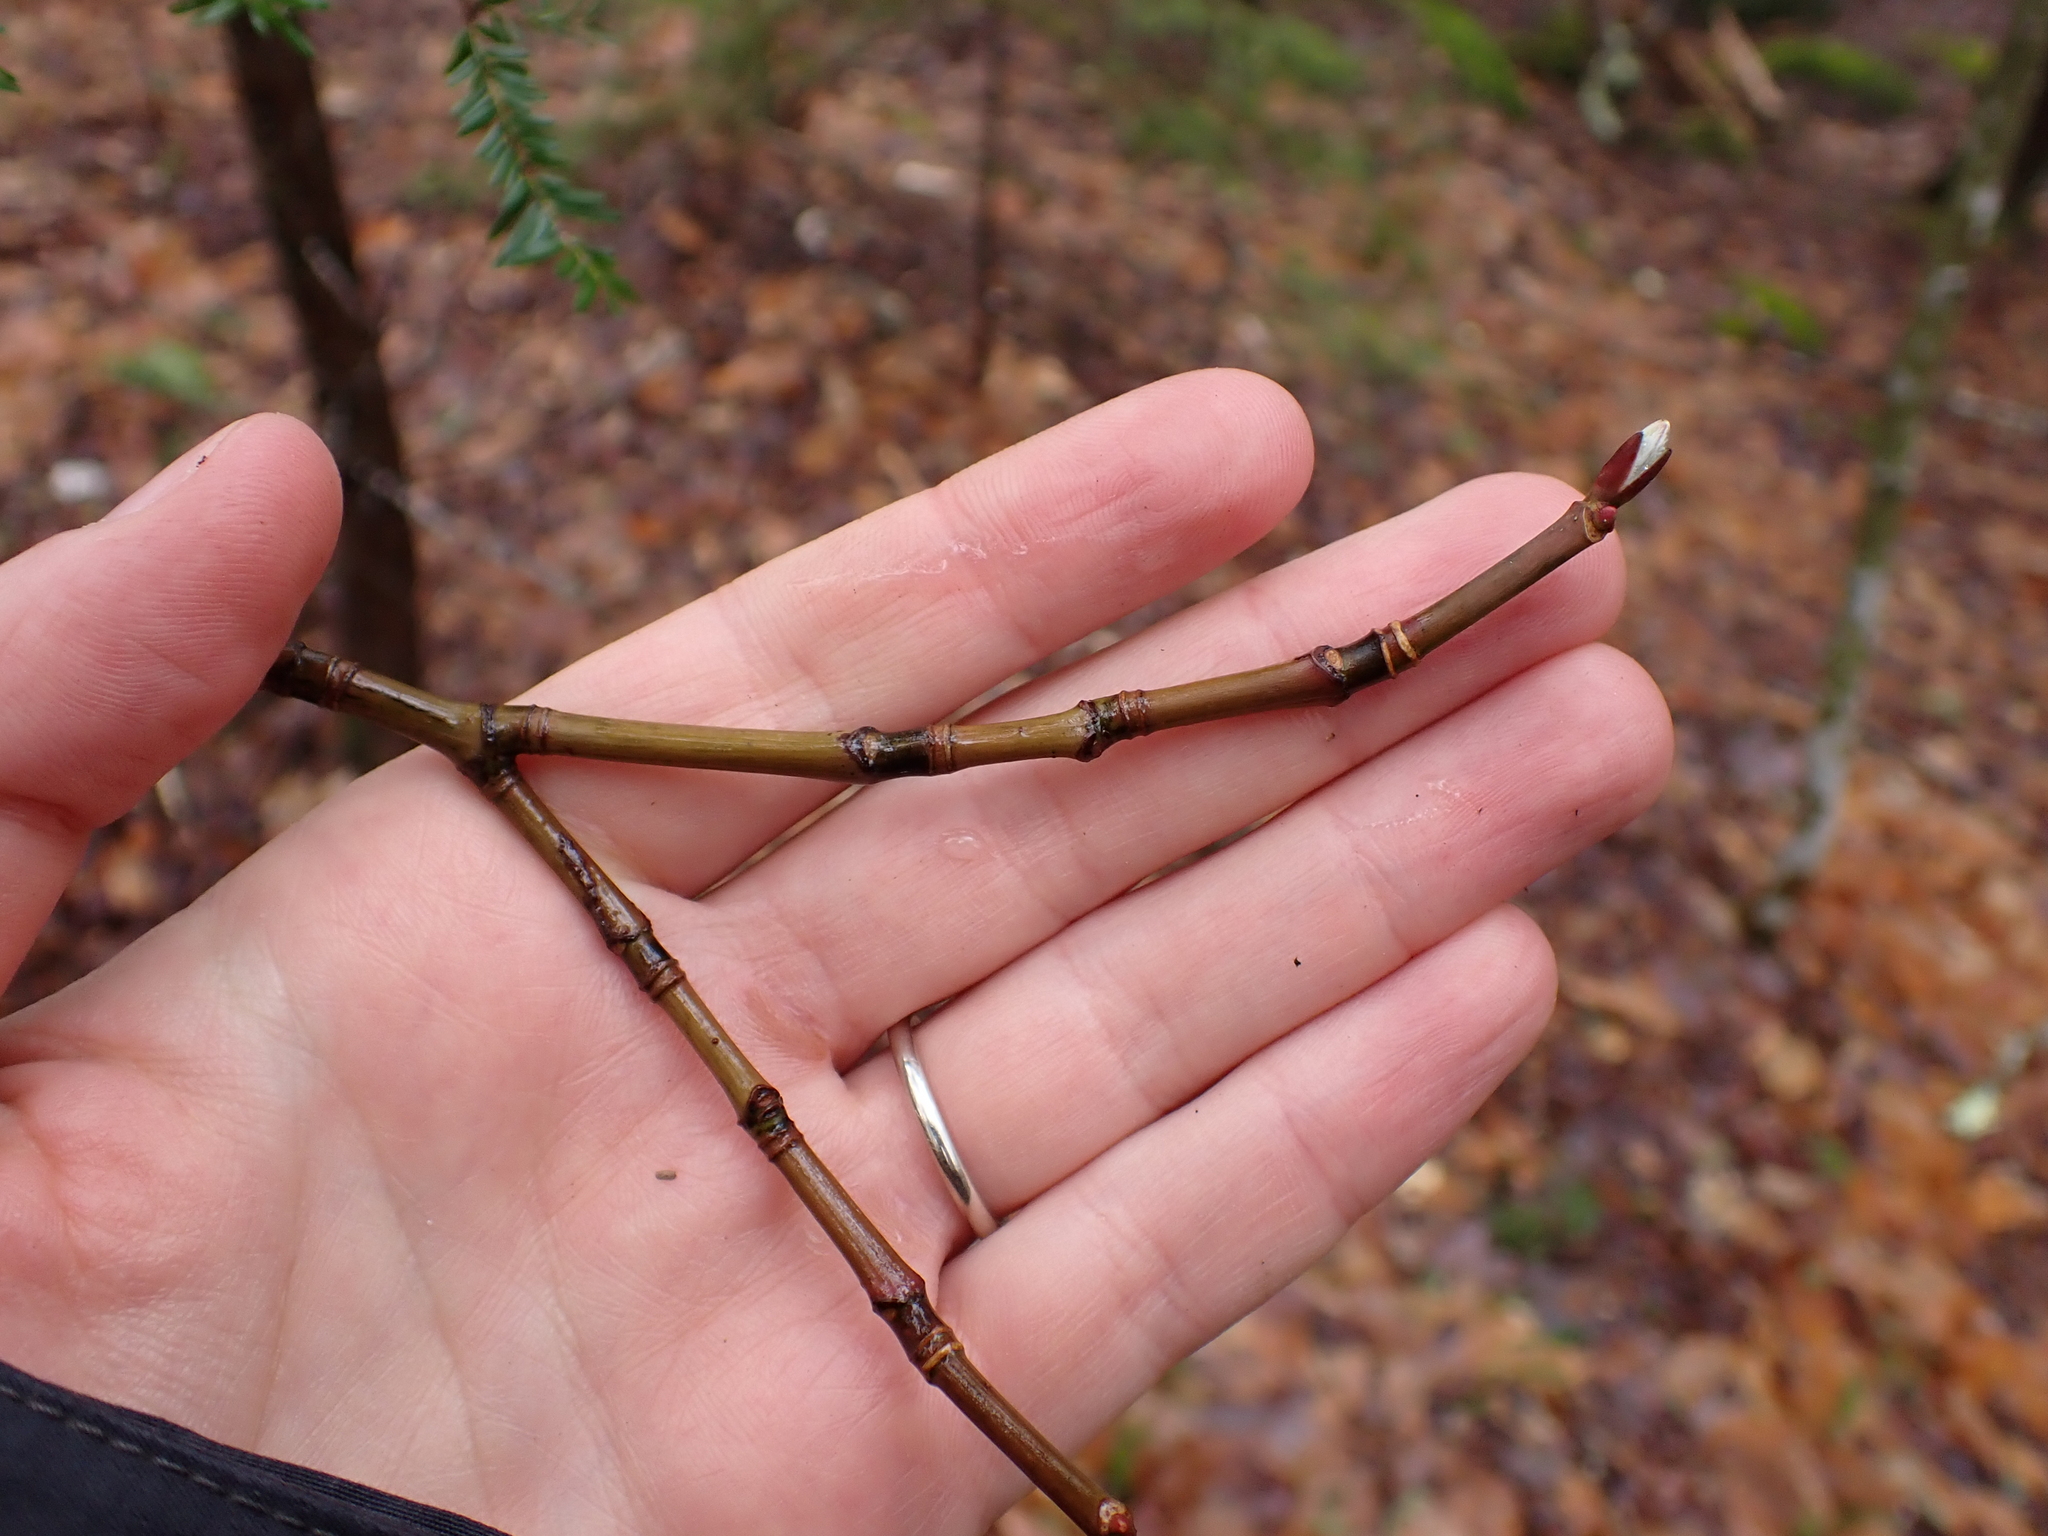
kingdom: Plantae
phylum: Tracheophyta
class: Magnoliopsida
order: Sapindales
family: Sapindaceae
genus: Acer
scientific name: Acer pensylvanicum
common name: Moosewood
